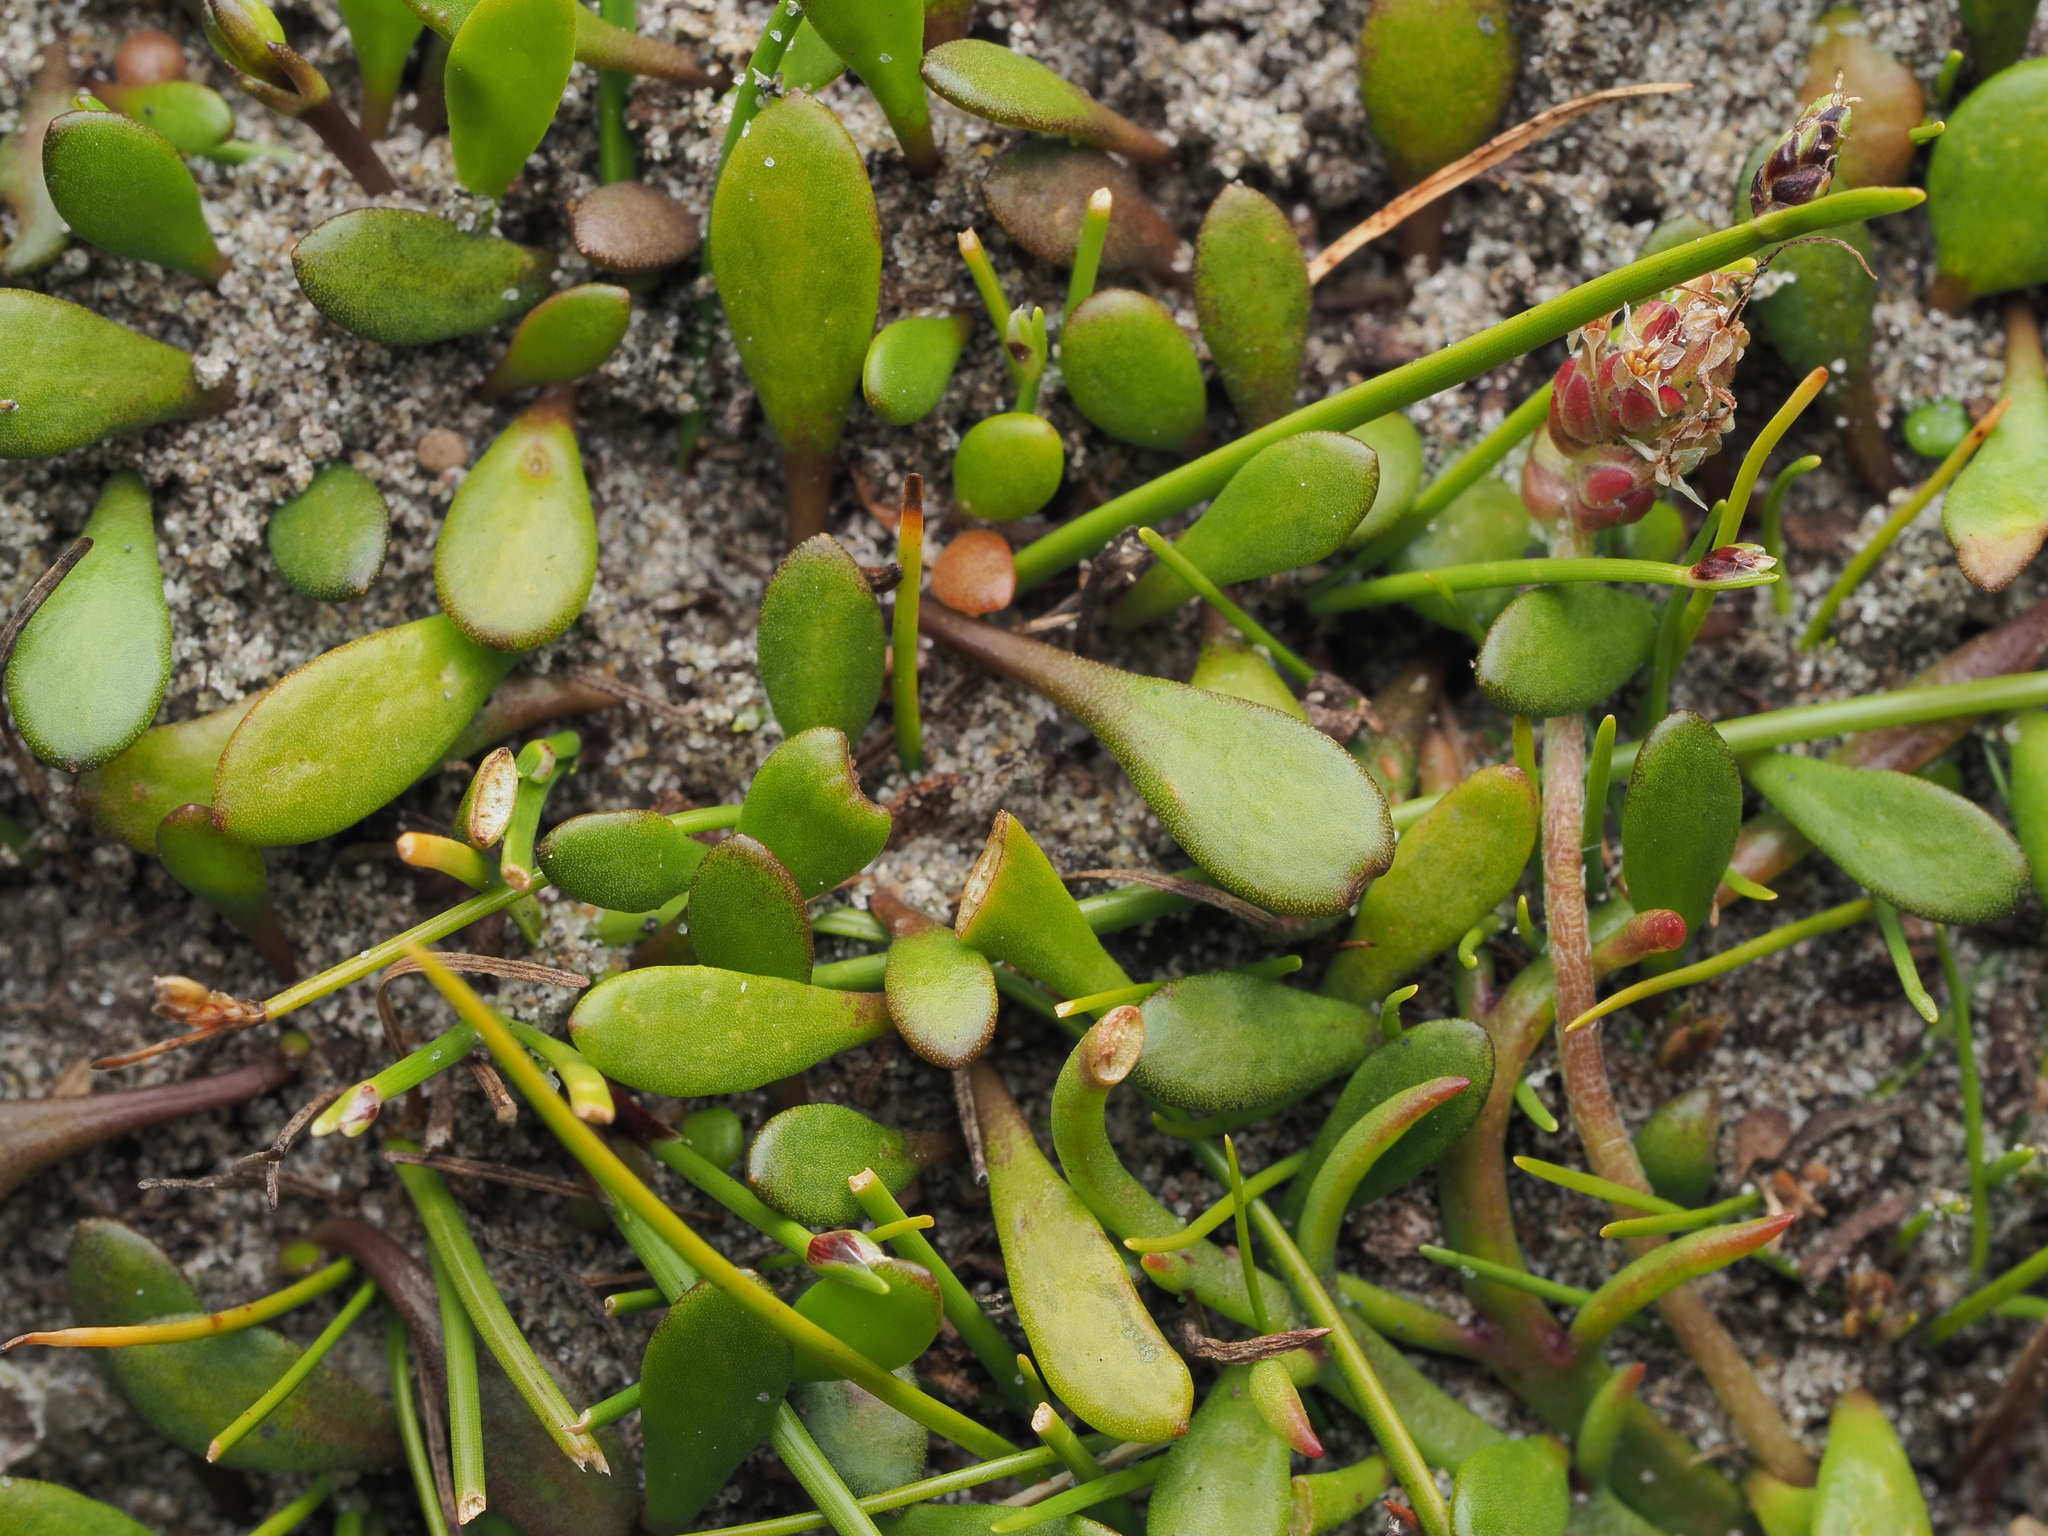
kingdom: Plantae
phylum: Tracheophyta
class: Magnoliopsida
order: Asterales
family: Goodeniaceae
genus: Goodenia
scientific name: Goodenia radicans
